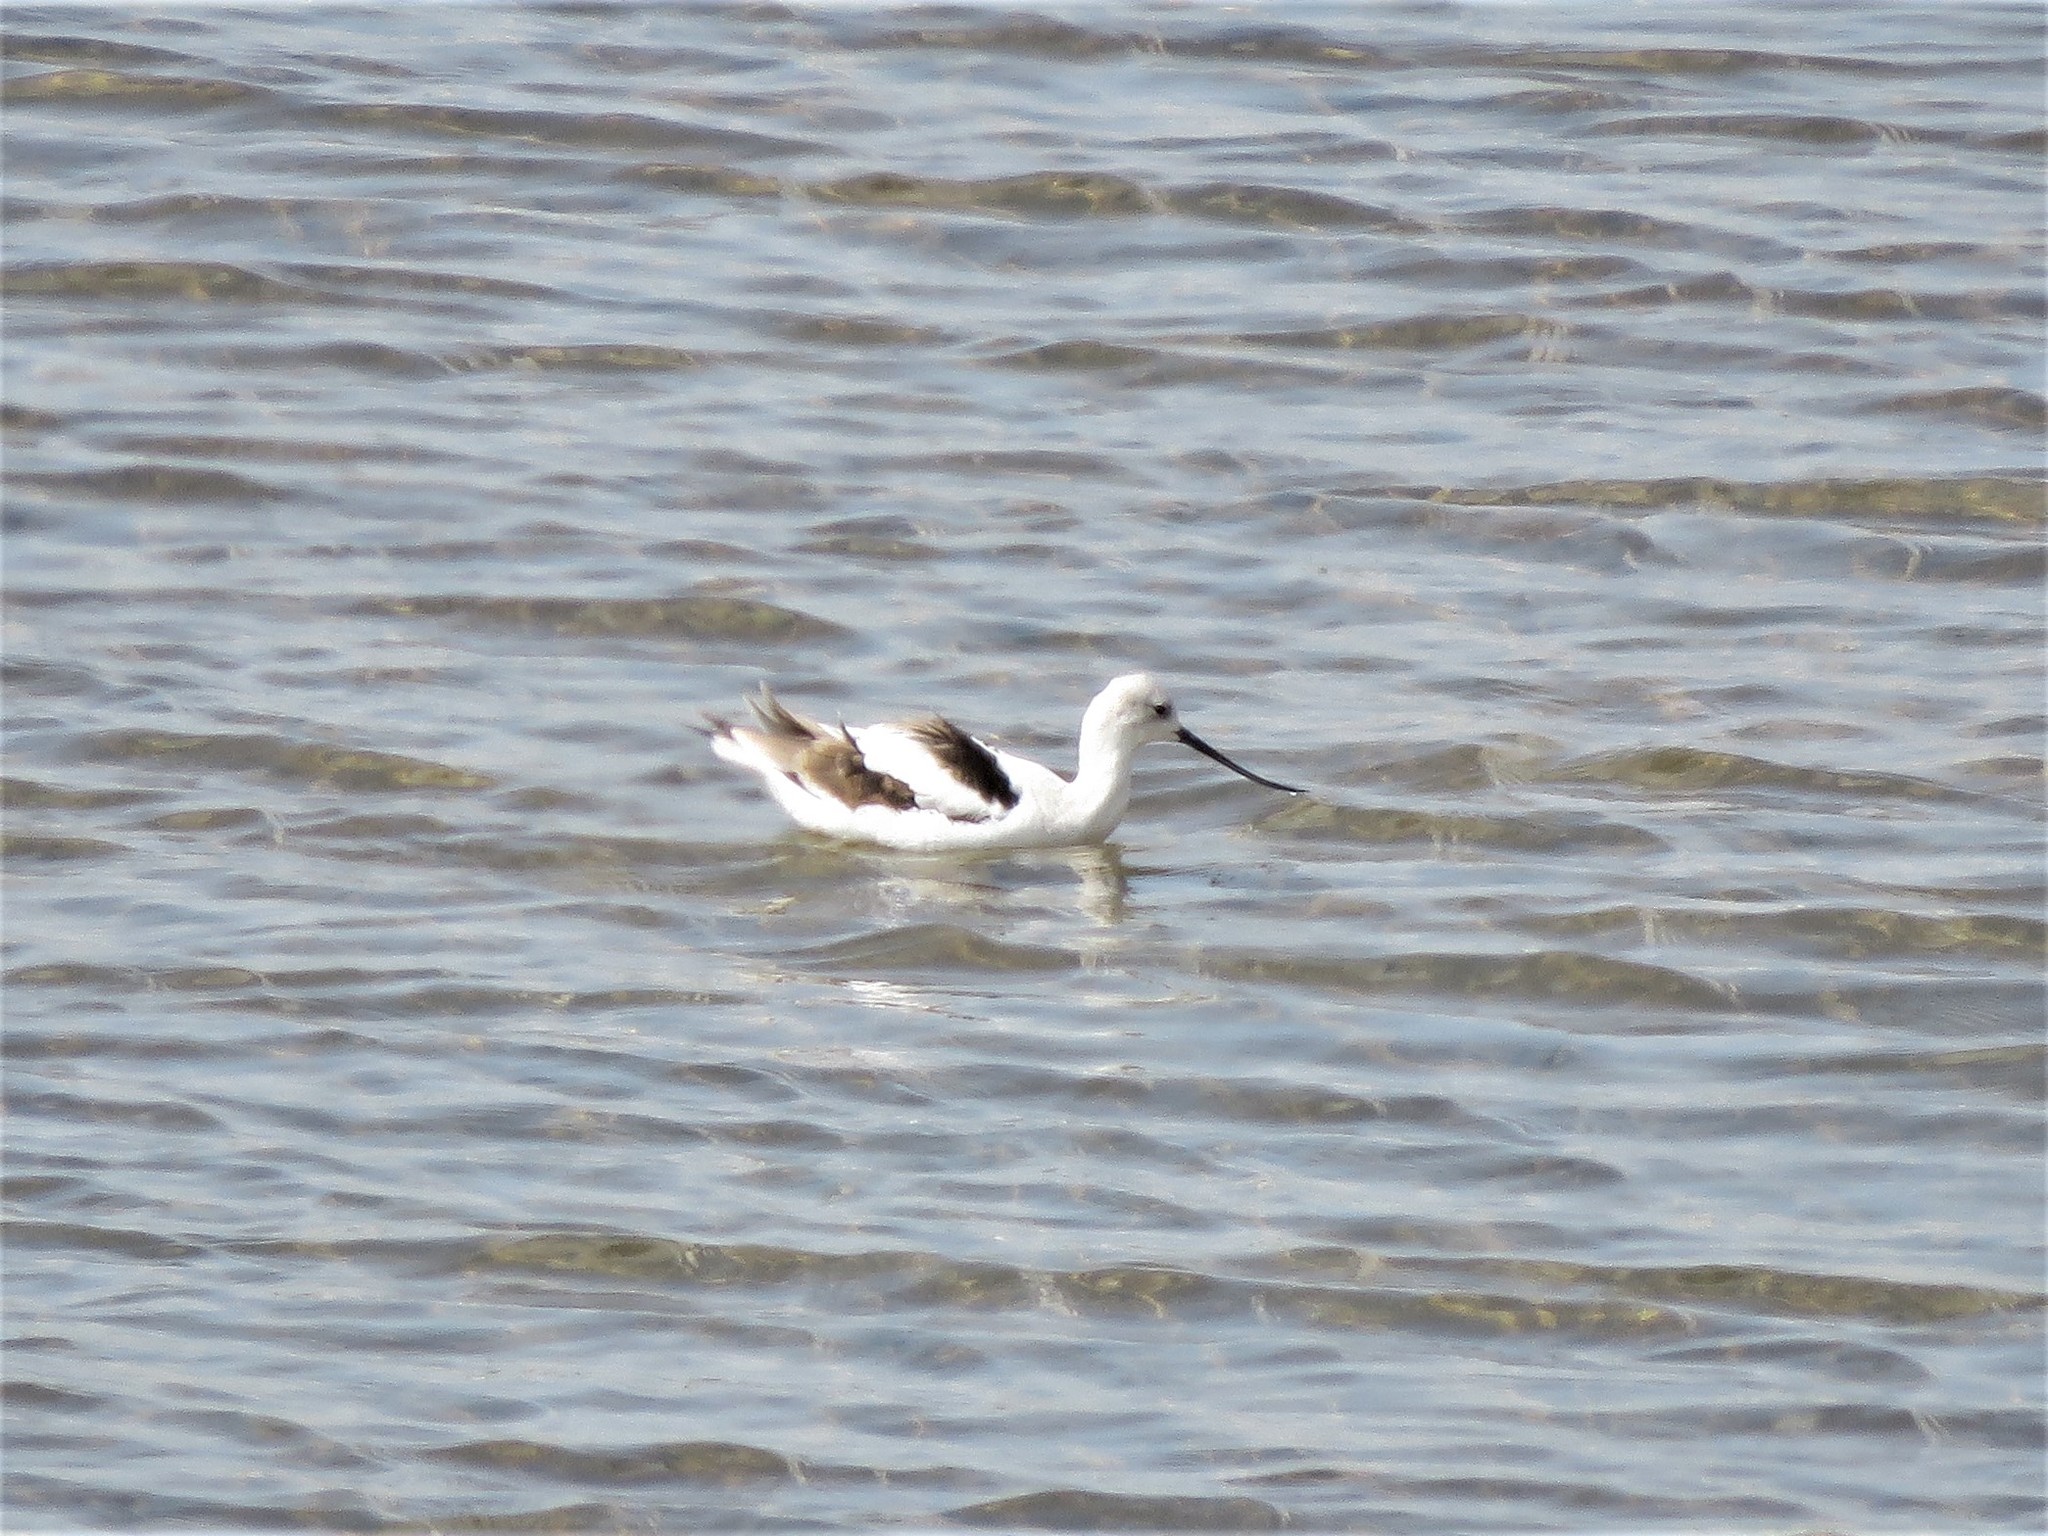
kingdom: Animalia
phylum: Chordata
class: Aves
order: Charadriiformes
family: Recurvirostridae
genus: Recurvirostra
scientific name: Recurvirostra americana
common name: American avocet
